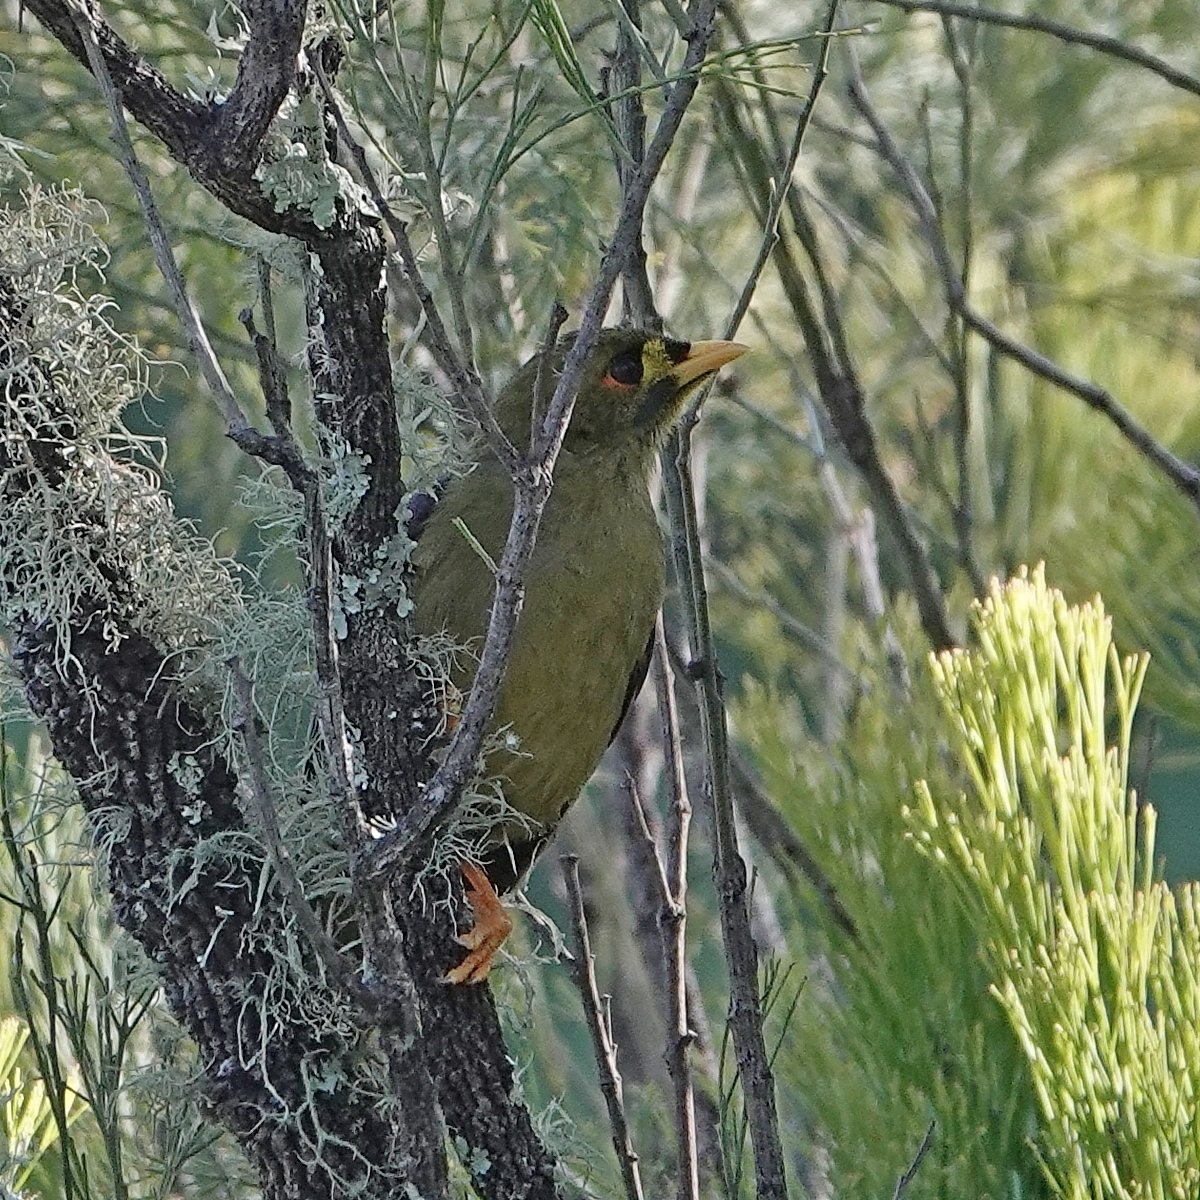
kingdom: Animalia
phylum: Chordata
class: Aves
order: Passeriformes
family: Meliphagidae
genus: Manorina
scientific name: Manorina melanophrys
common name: Bell miner
